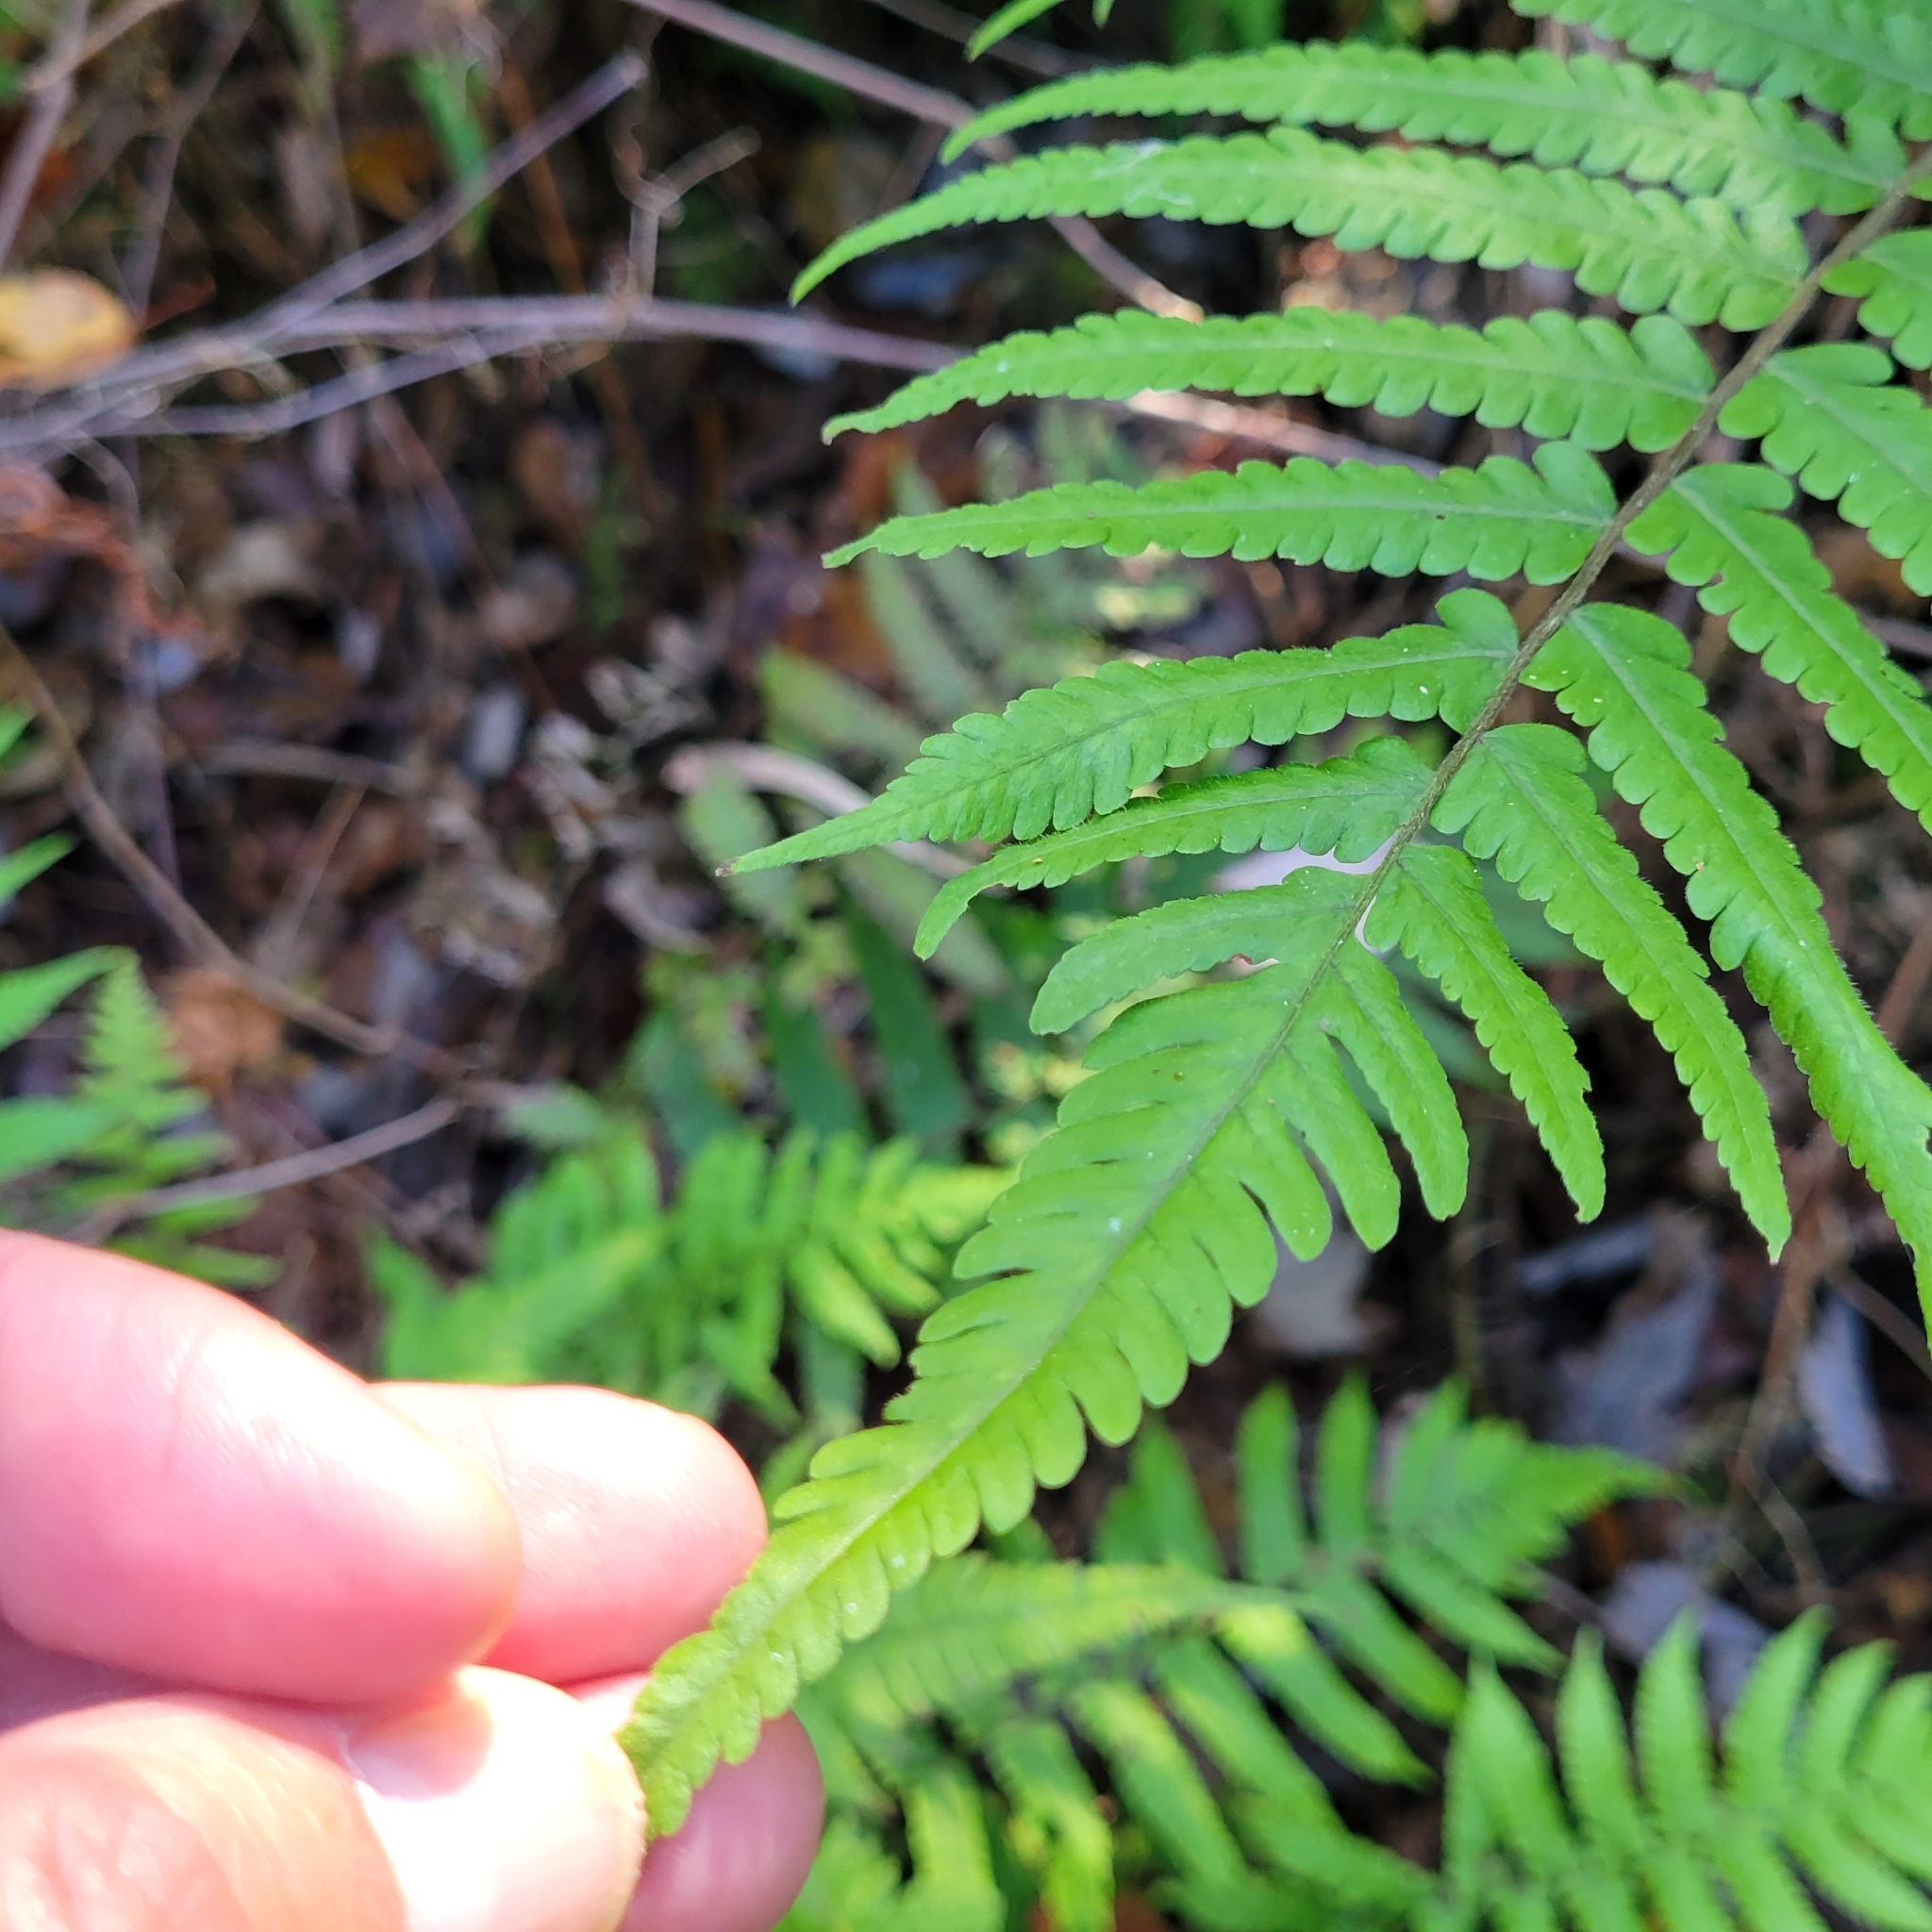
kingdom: Plantae
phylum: Tracheophyta
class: Polypodiopsida
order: Polypodiales
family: Thelypteridaceae
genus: Christella
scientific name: Christella dentata
